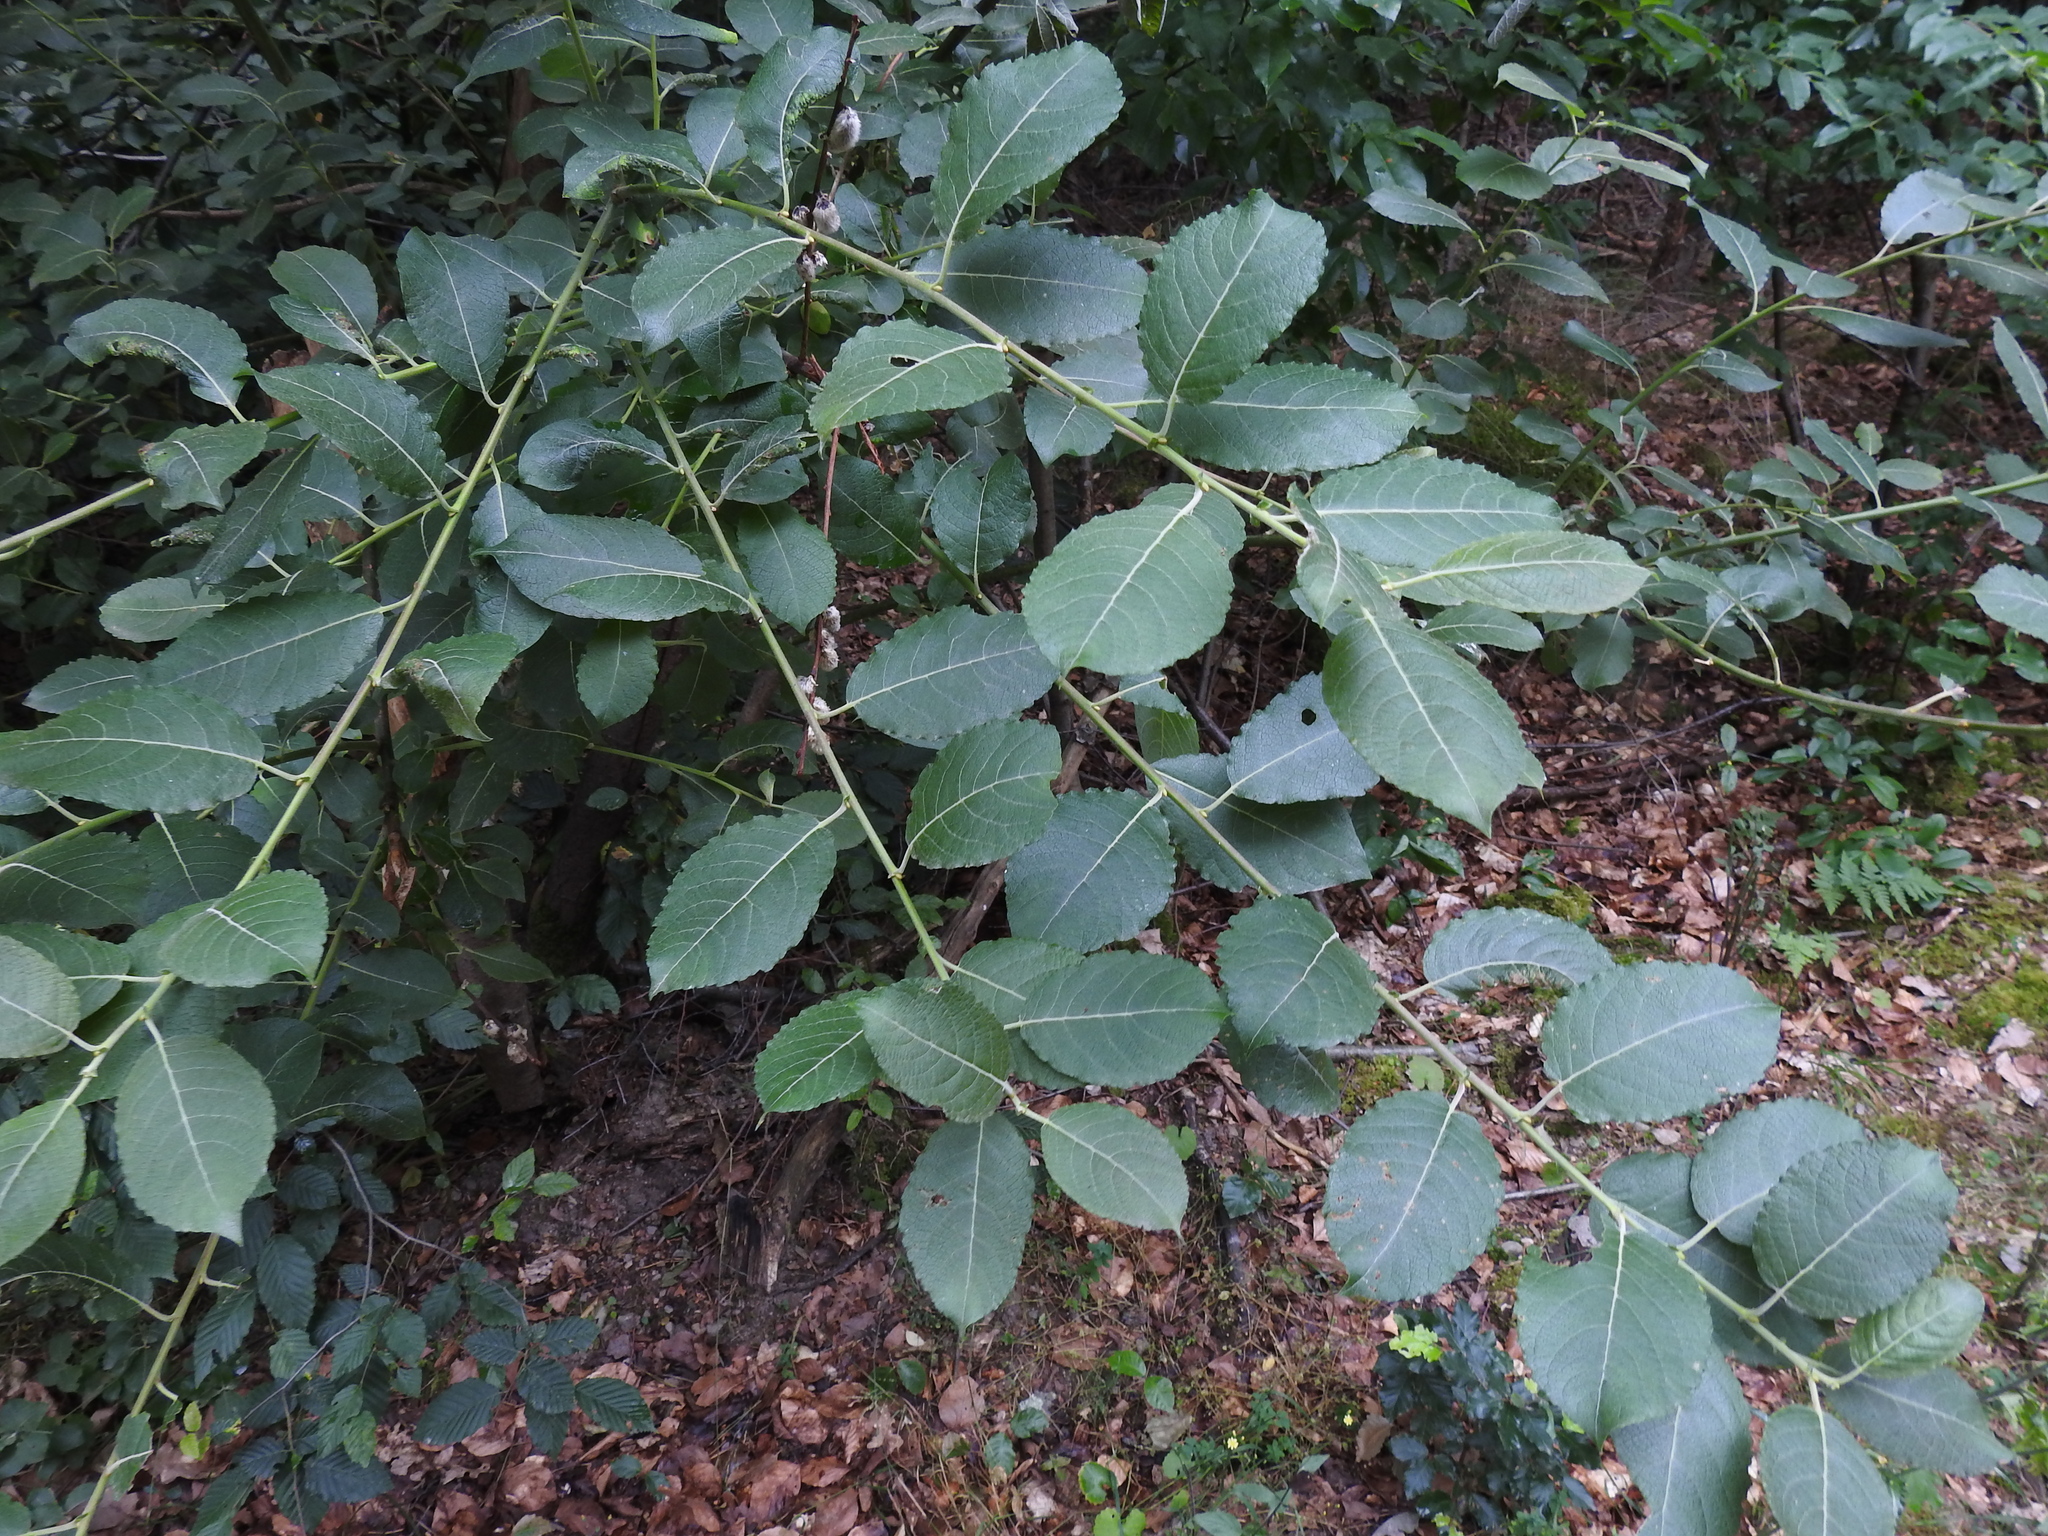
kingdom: Plantae
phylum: Tracheophyta
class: Magnoliopsida
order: Malpighiales
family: Salicaceae
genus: Salix
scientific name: Salix caprea
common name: Goat willow
